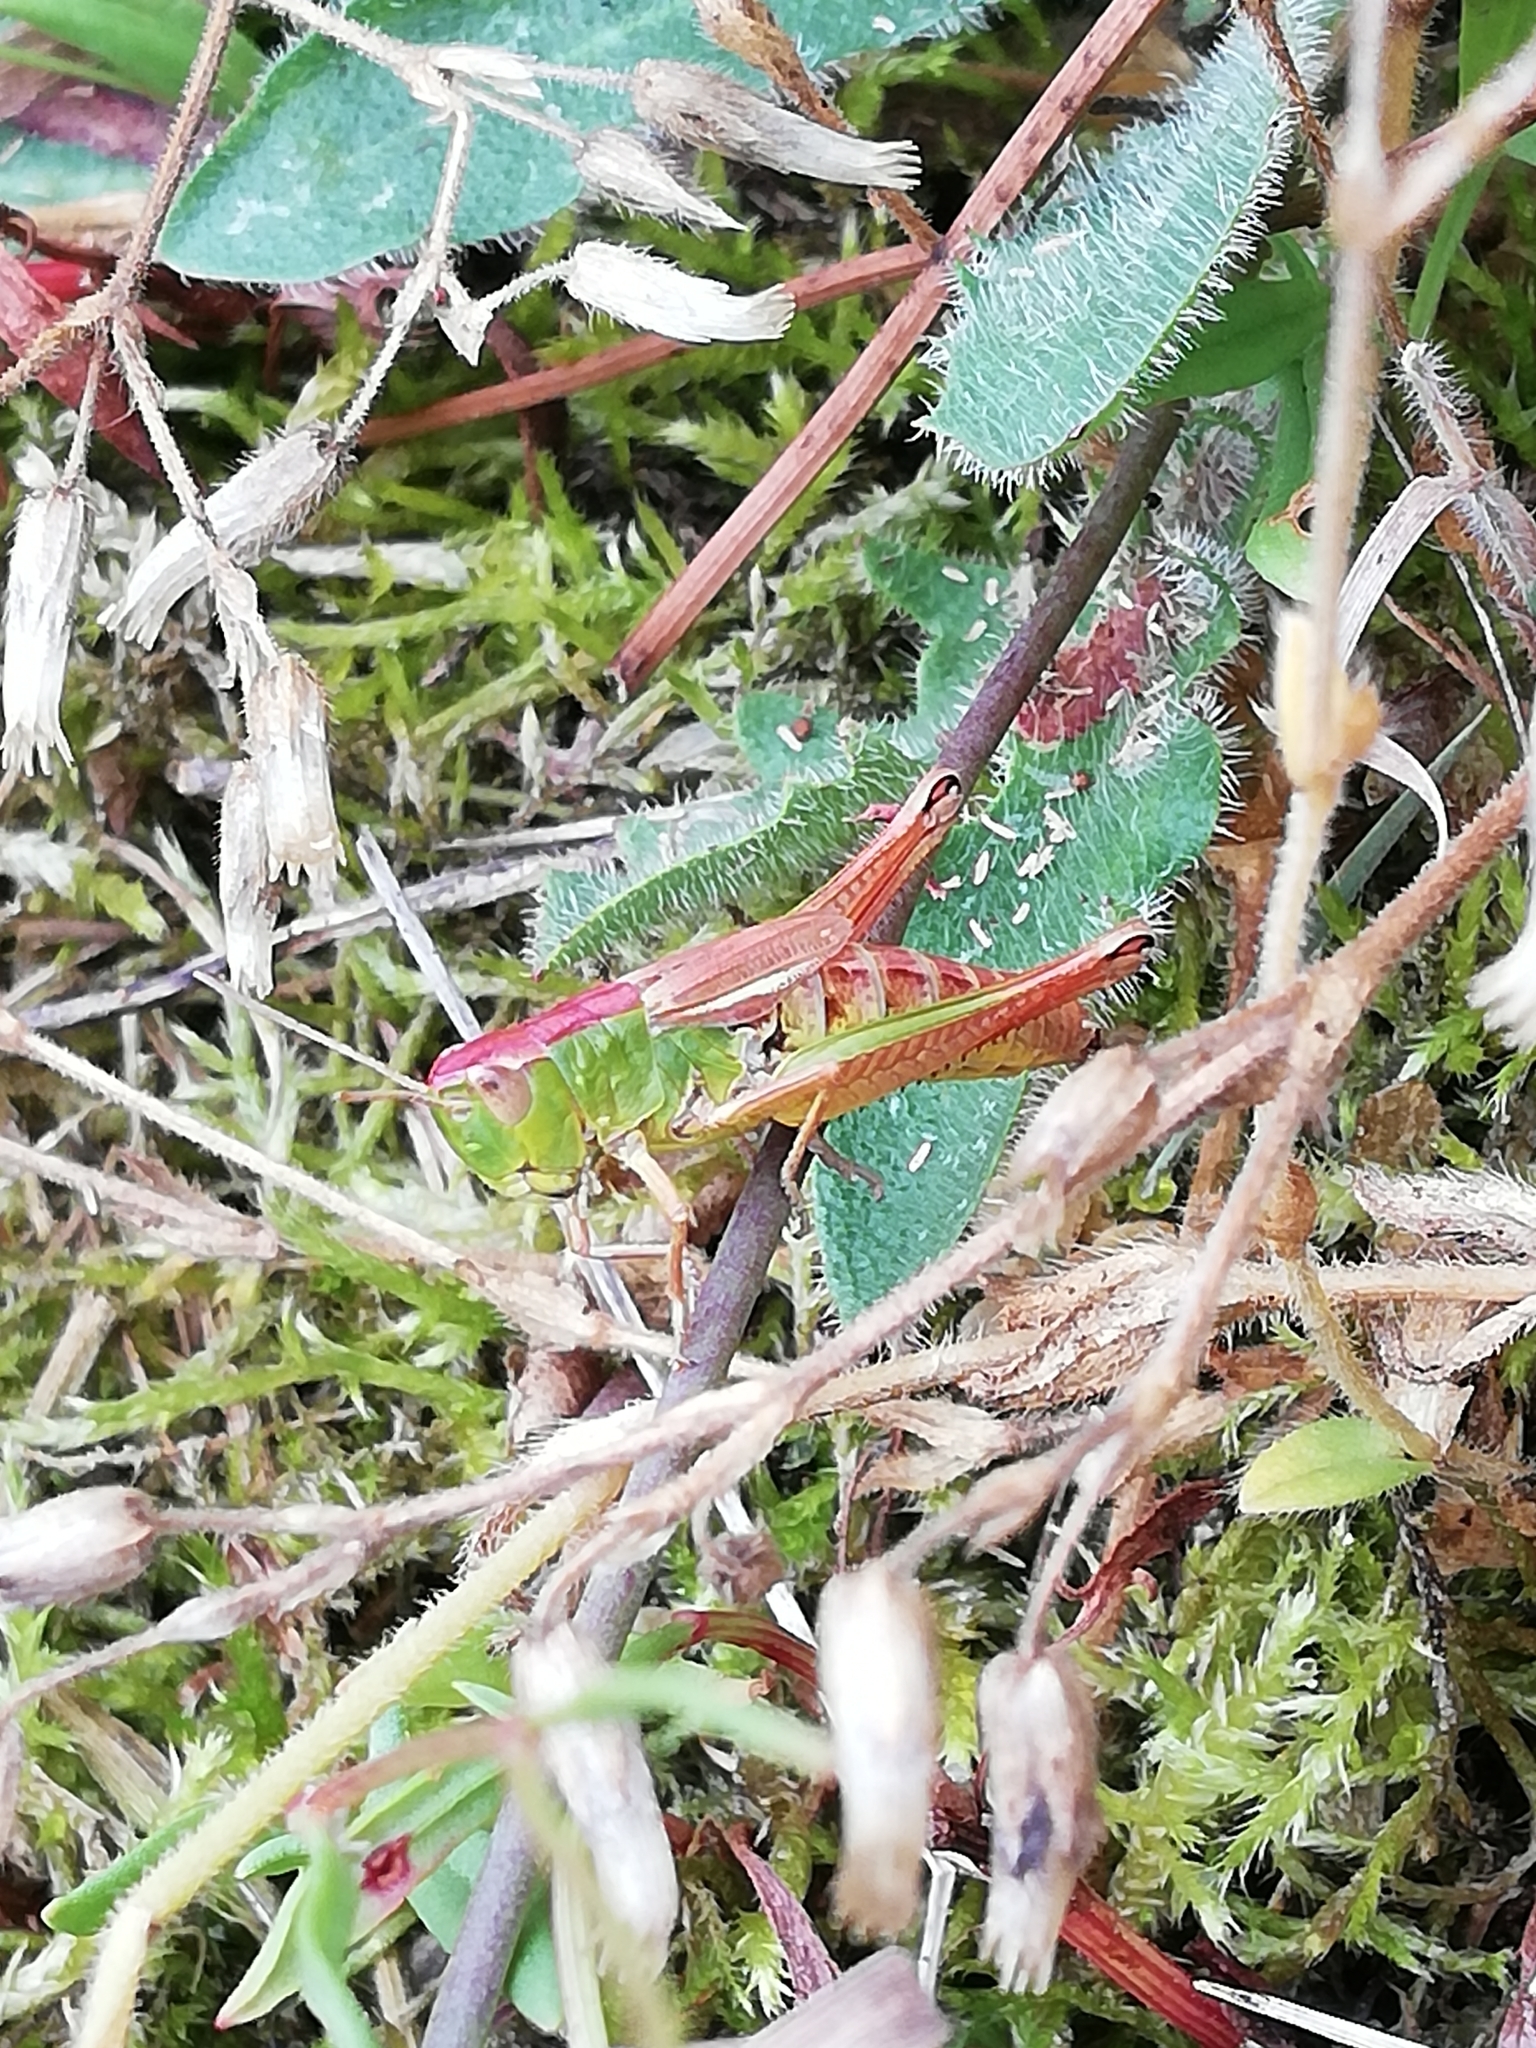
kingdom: Animalia
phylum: Arthropoda
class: Insecta
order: Orthoptera
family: Acrididae
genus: Pseudochorthippus
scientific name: Pseudochorthippus parallelus
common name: Meadow grasshopper
